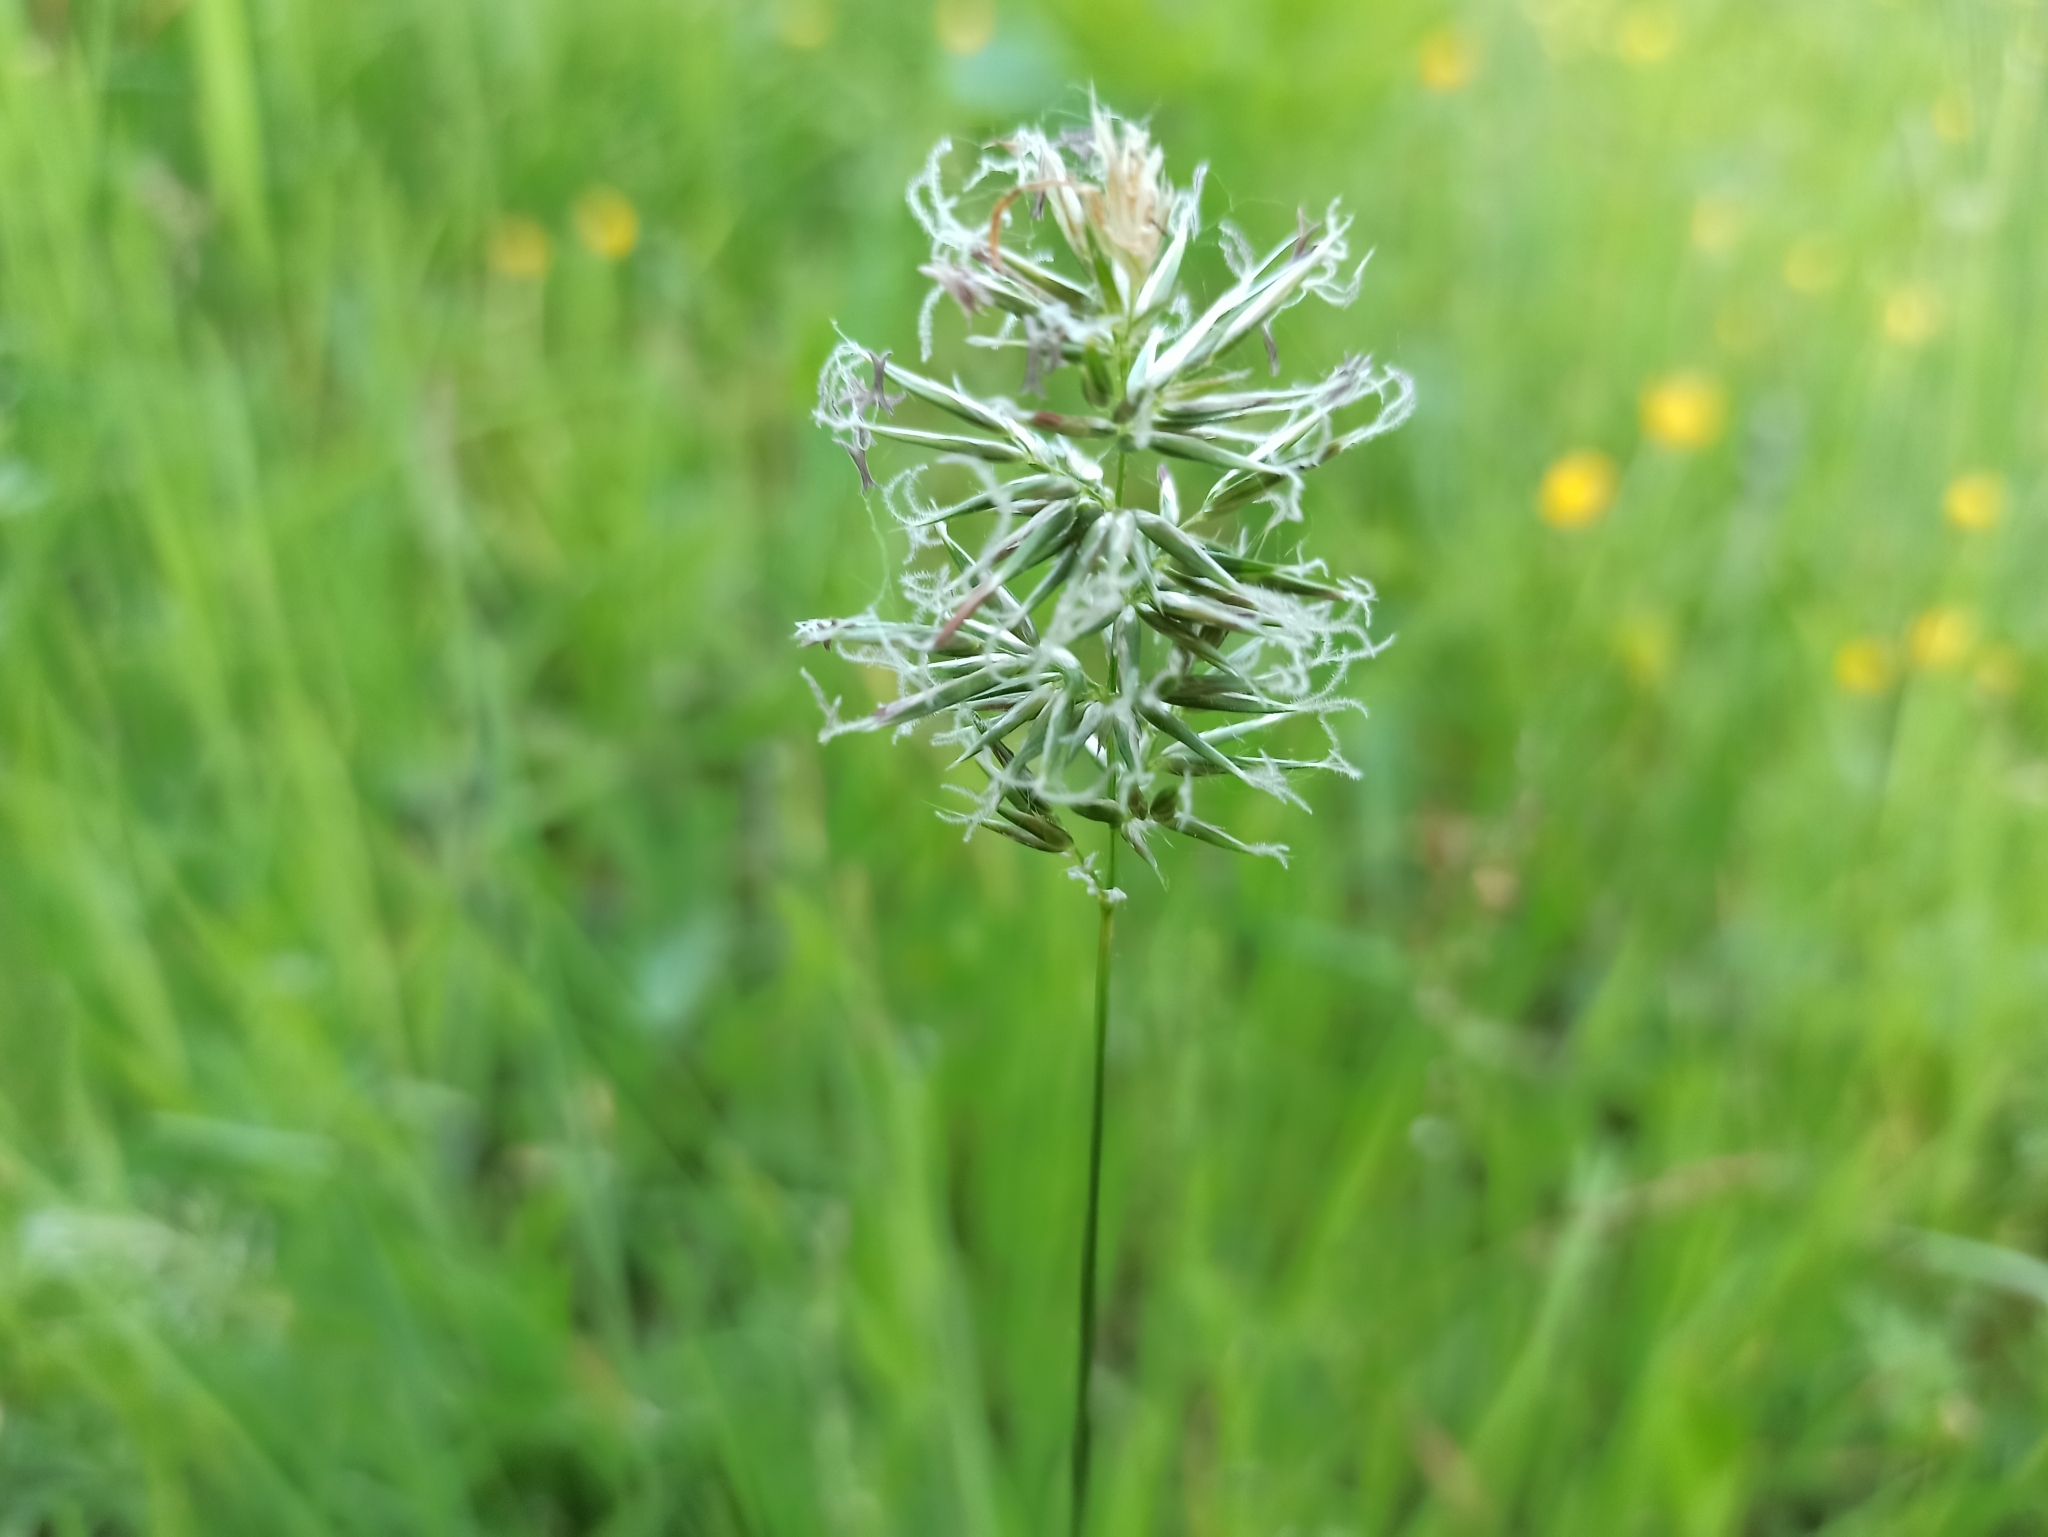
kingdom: Plantae
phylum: Tracheophyta
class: Liliopsida
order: Poales
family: Poaceae
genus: Anthoxanthum
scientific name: Anthoxanthum odoratum
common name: Sweet vernalgrass
